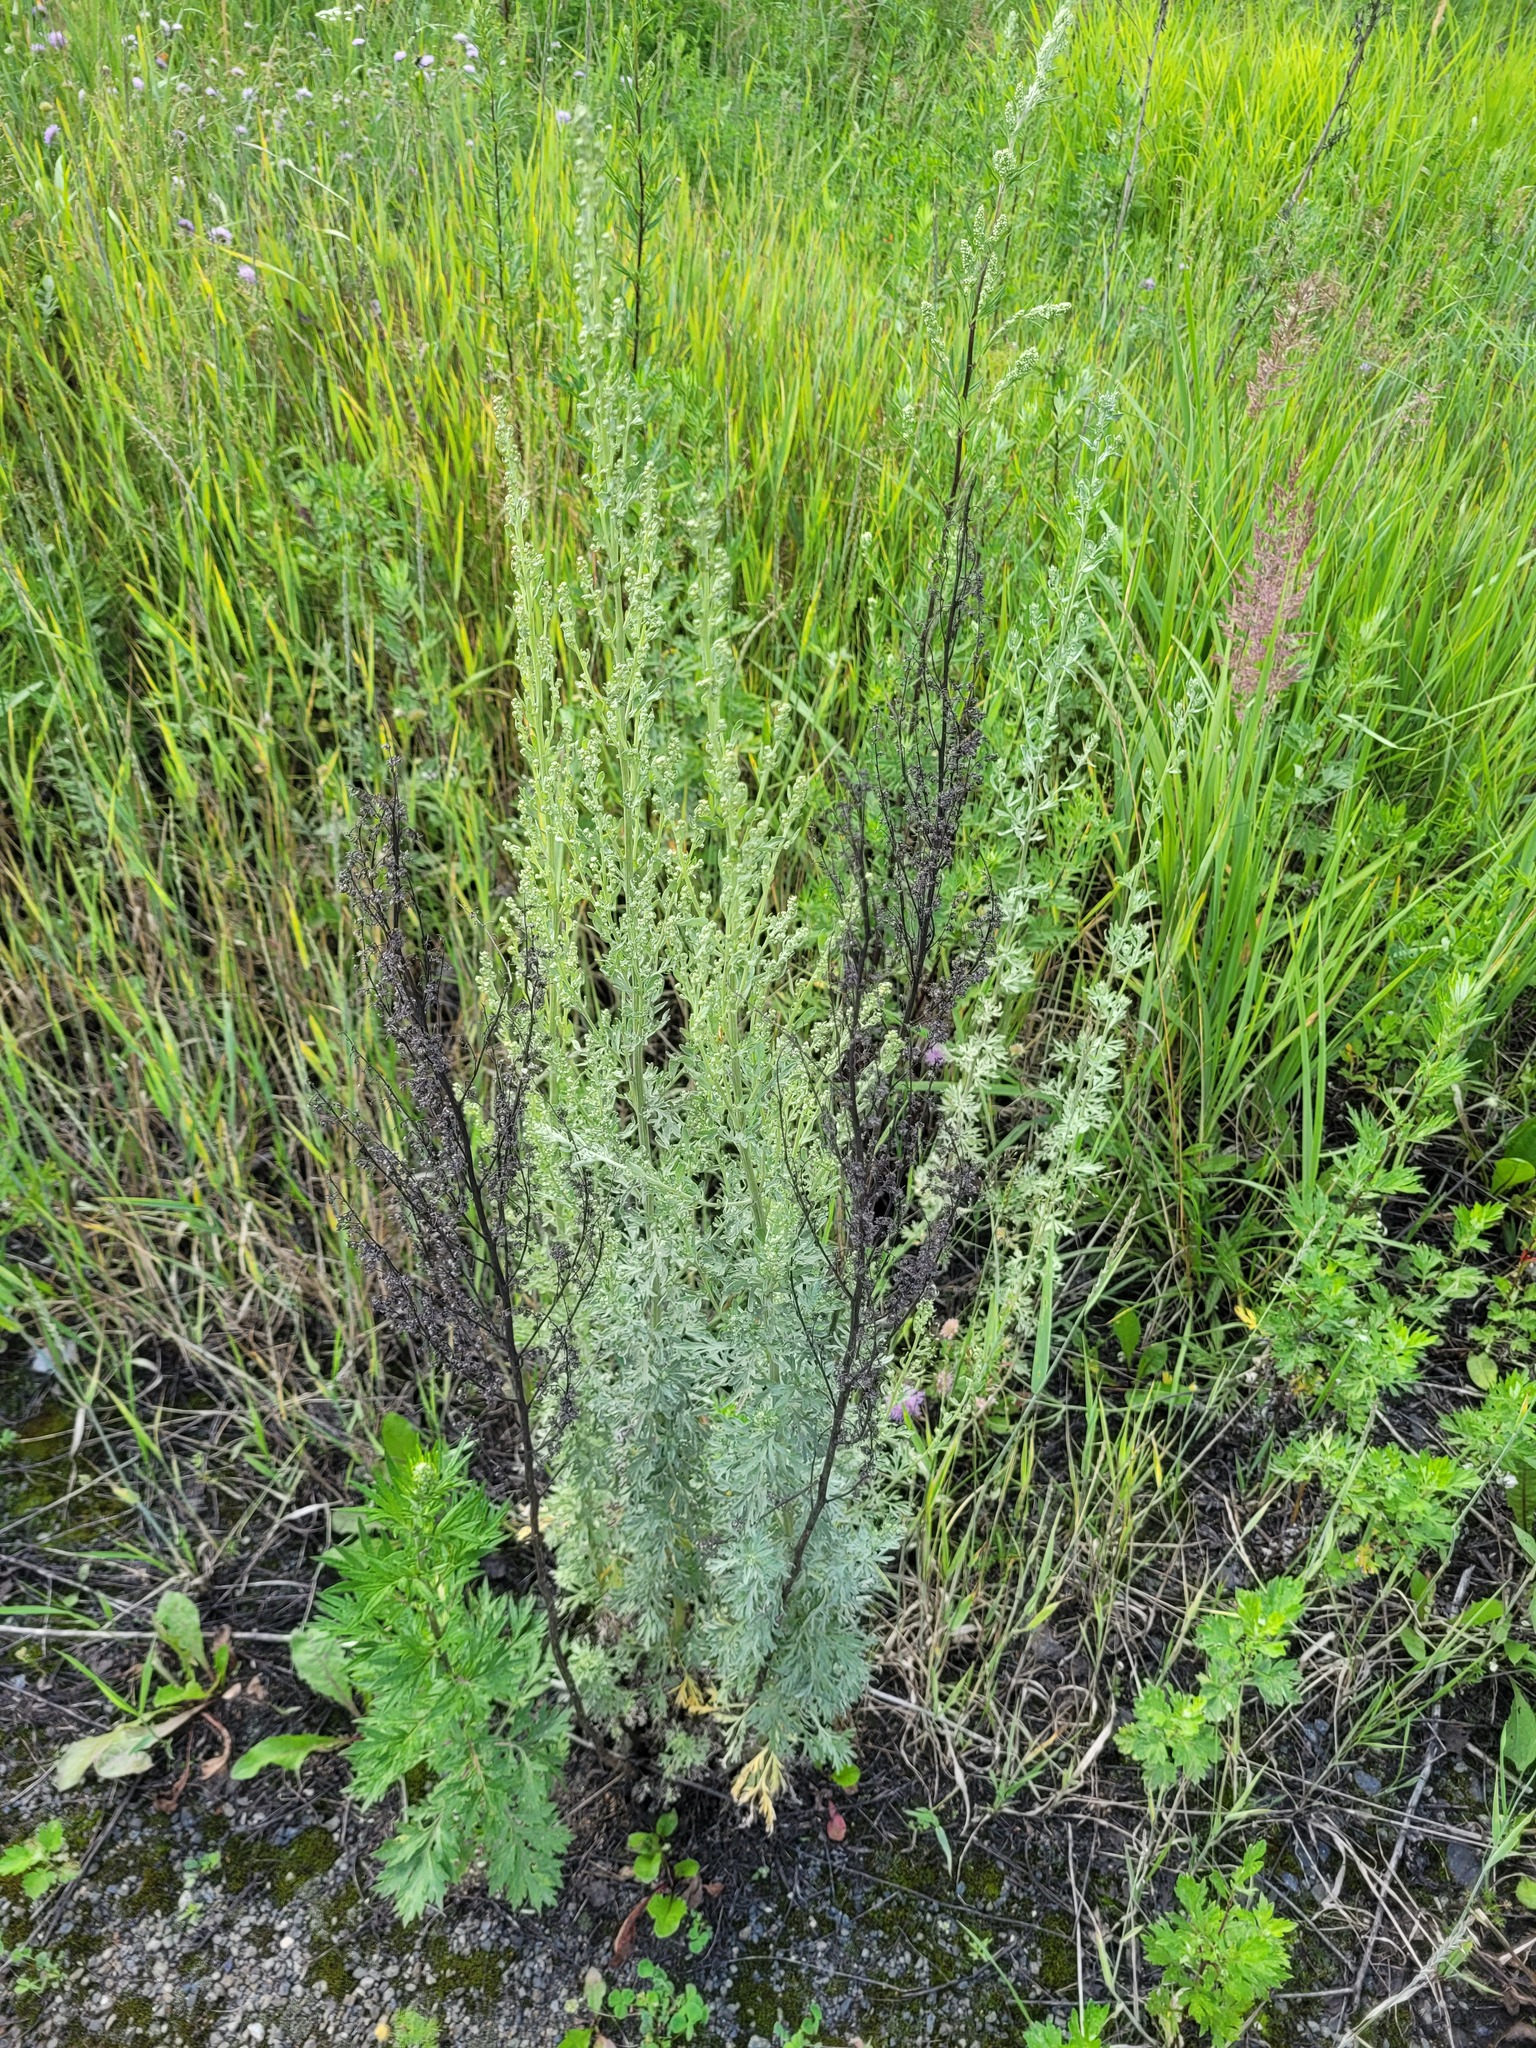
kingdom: Plantae
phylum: Tracheophyta
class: Magnoliopsida
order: Asterales
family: Asteraceae
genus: Artemisia
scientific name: Artemisia absinthium
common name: Wormwood
